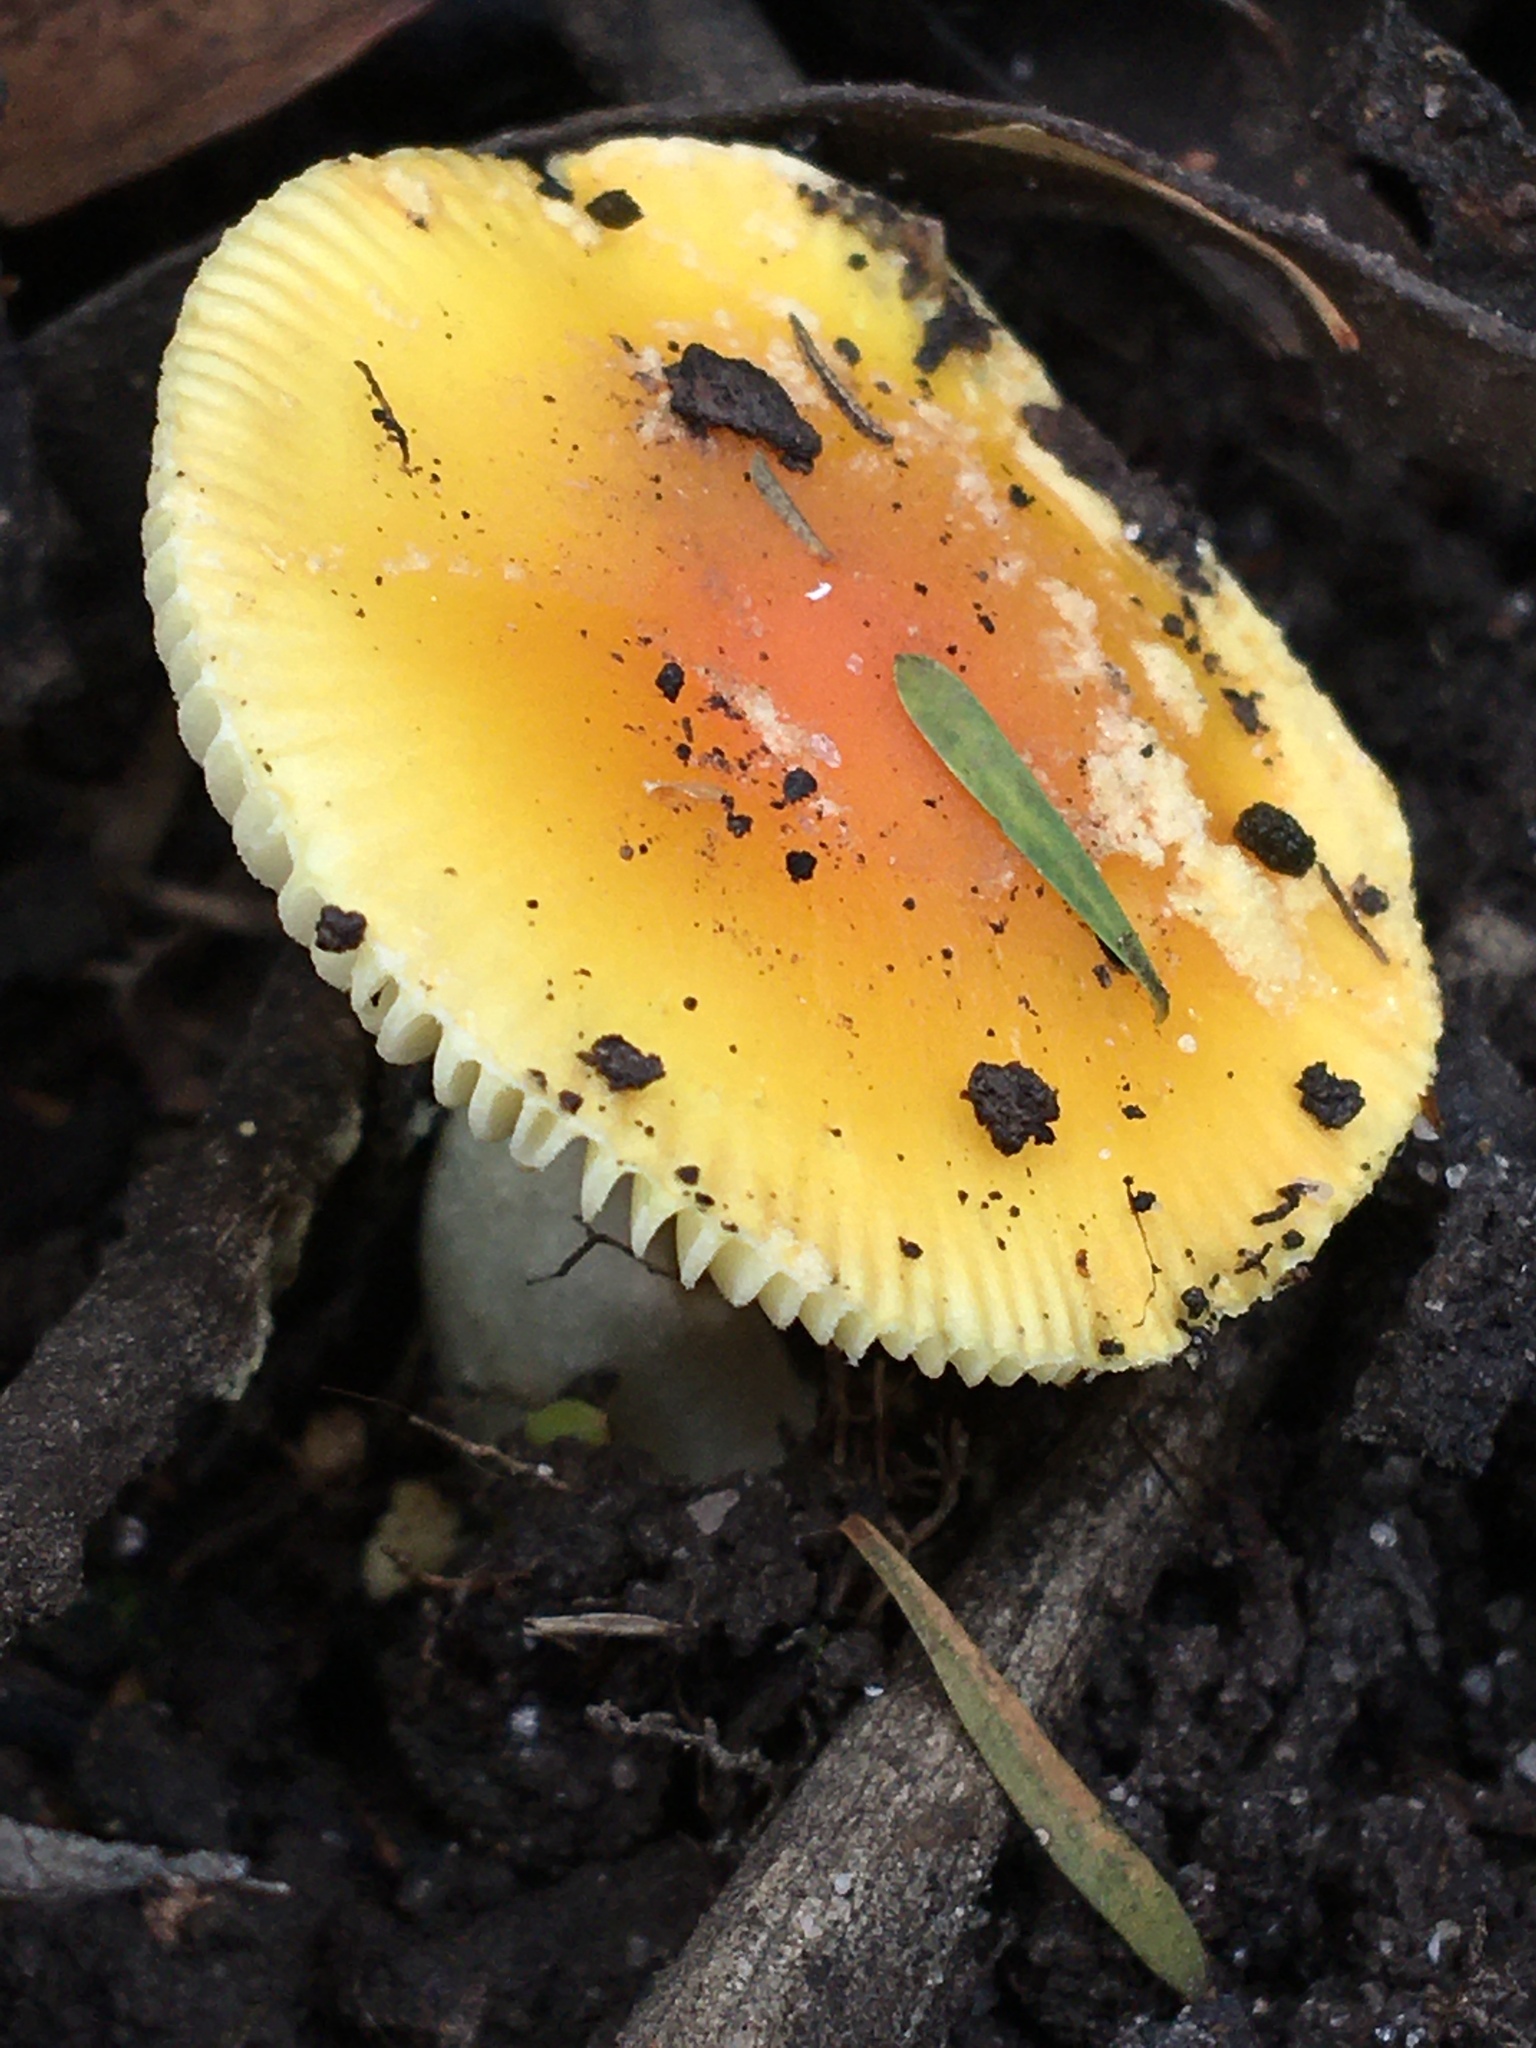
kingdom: Fungi
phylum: Basidiomycota
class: Agaricomycetes
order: Agaricales
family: Amanitaceae
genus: Amanita
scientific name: Amanita xanthocephala
